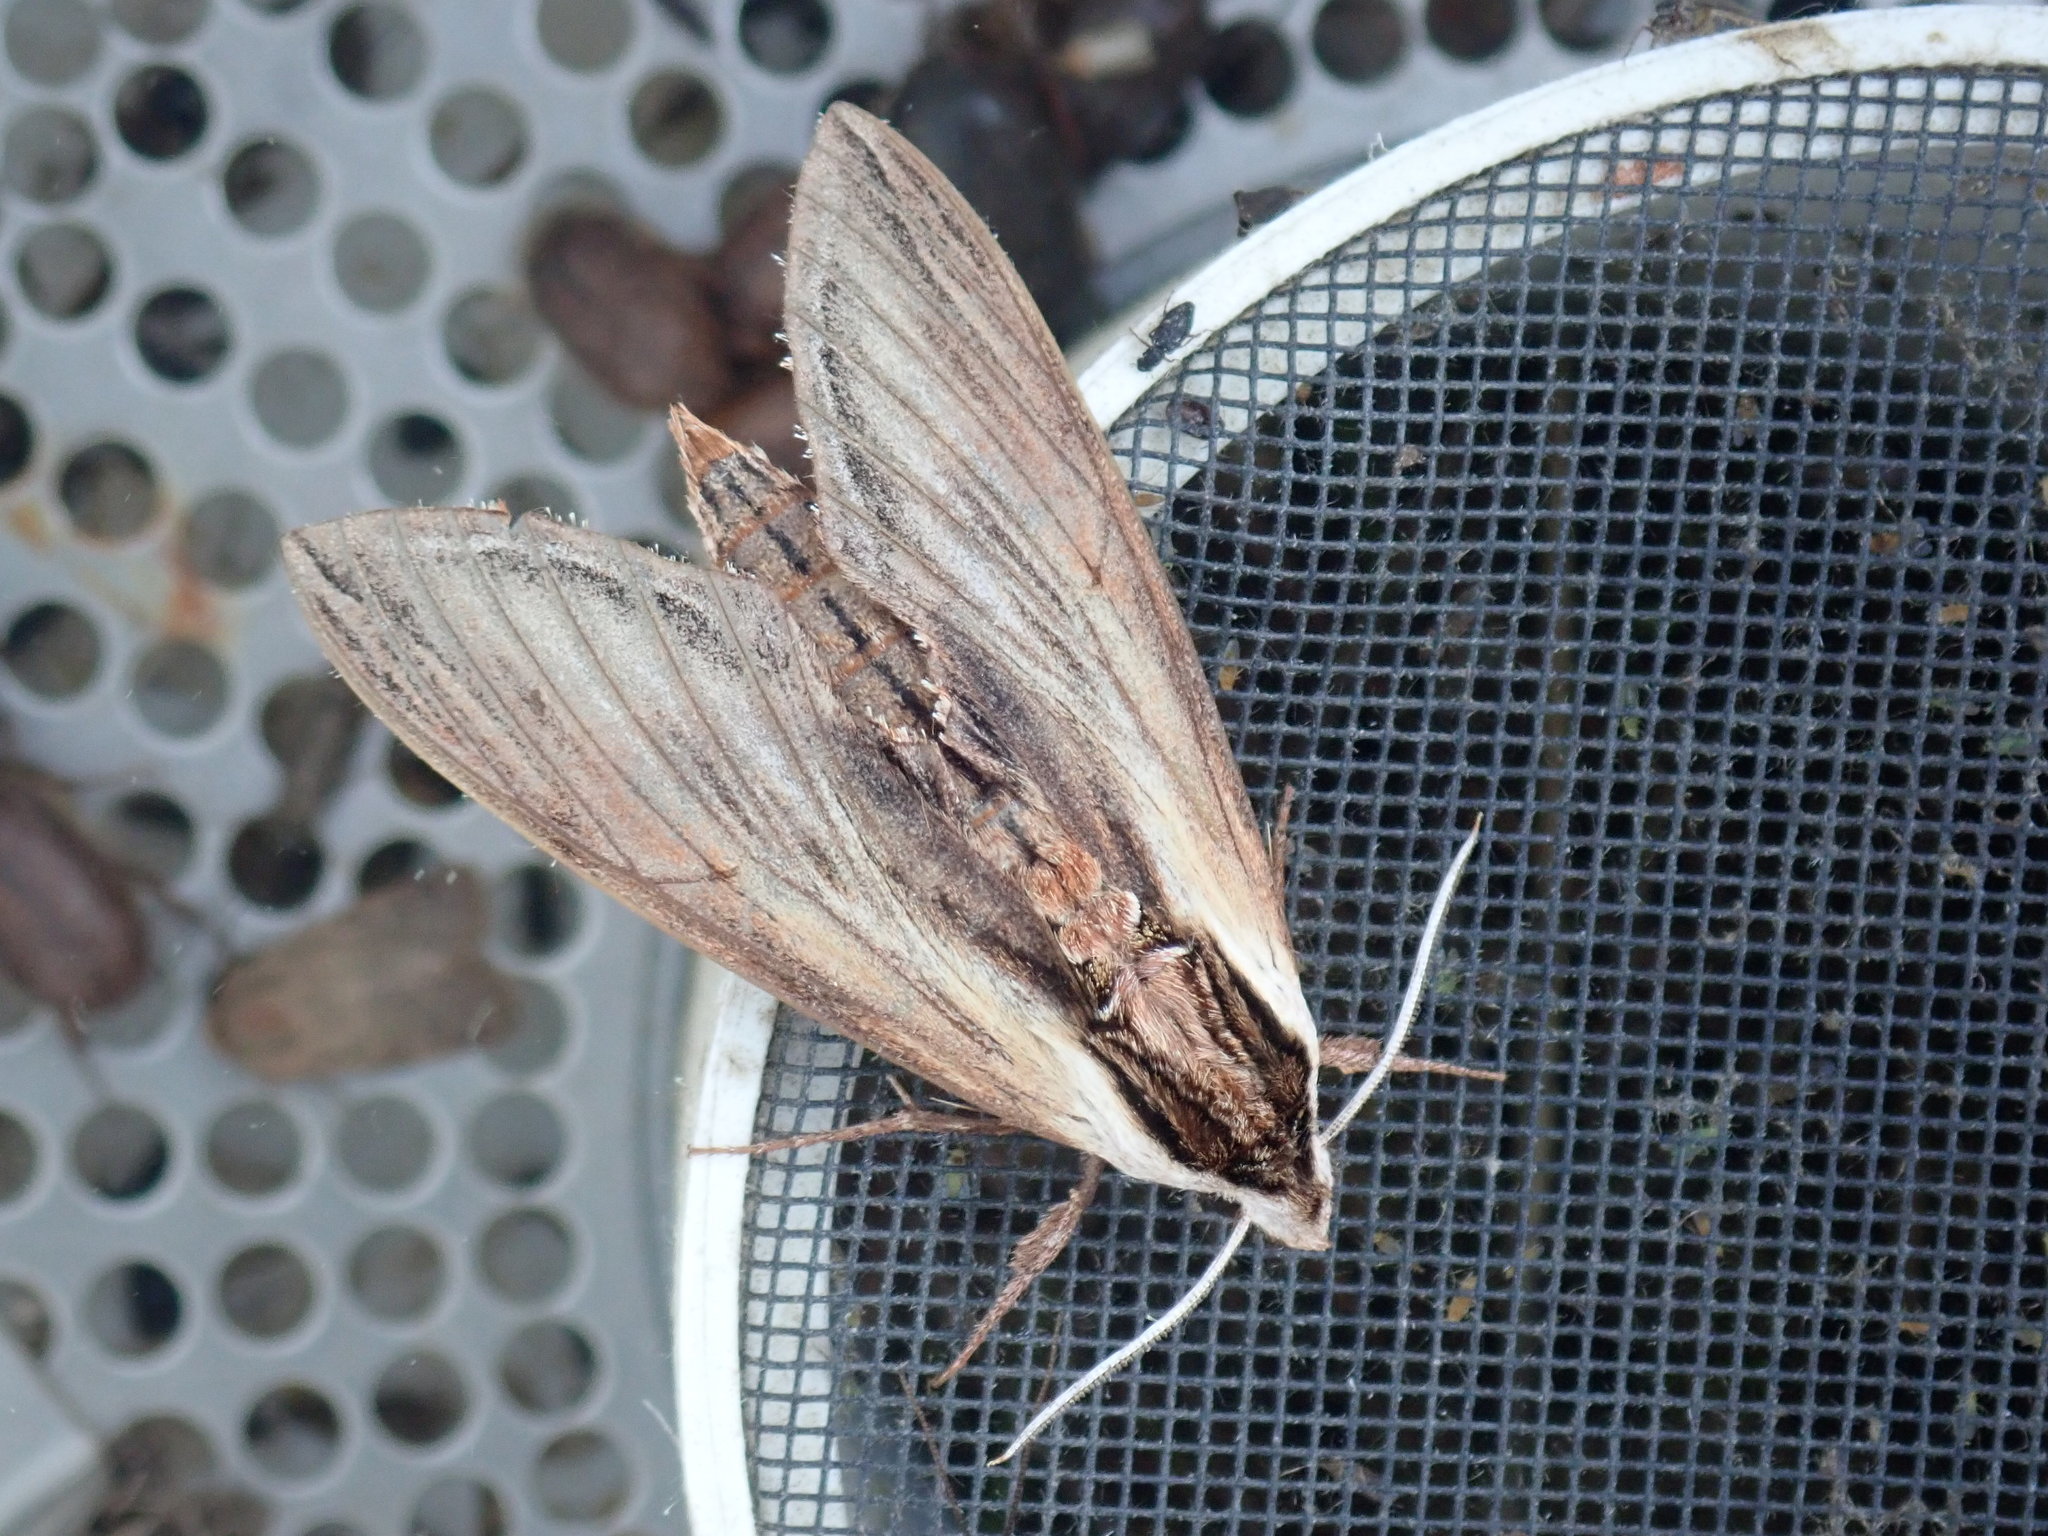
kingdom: Animalia
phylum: Arthropoda
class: Insecta
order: Lepidoptera
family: Sphingidae
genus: Sphinx
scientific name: Sphinx kalmiae
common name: Laurel sphinx
